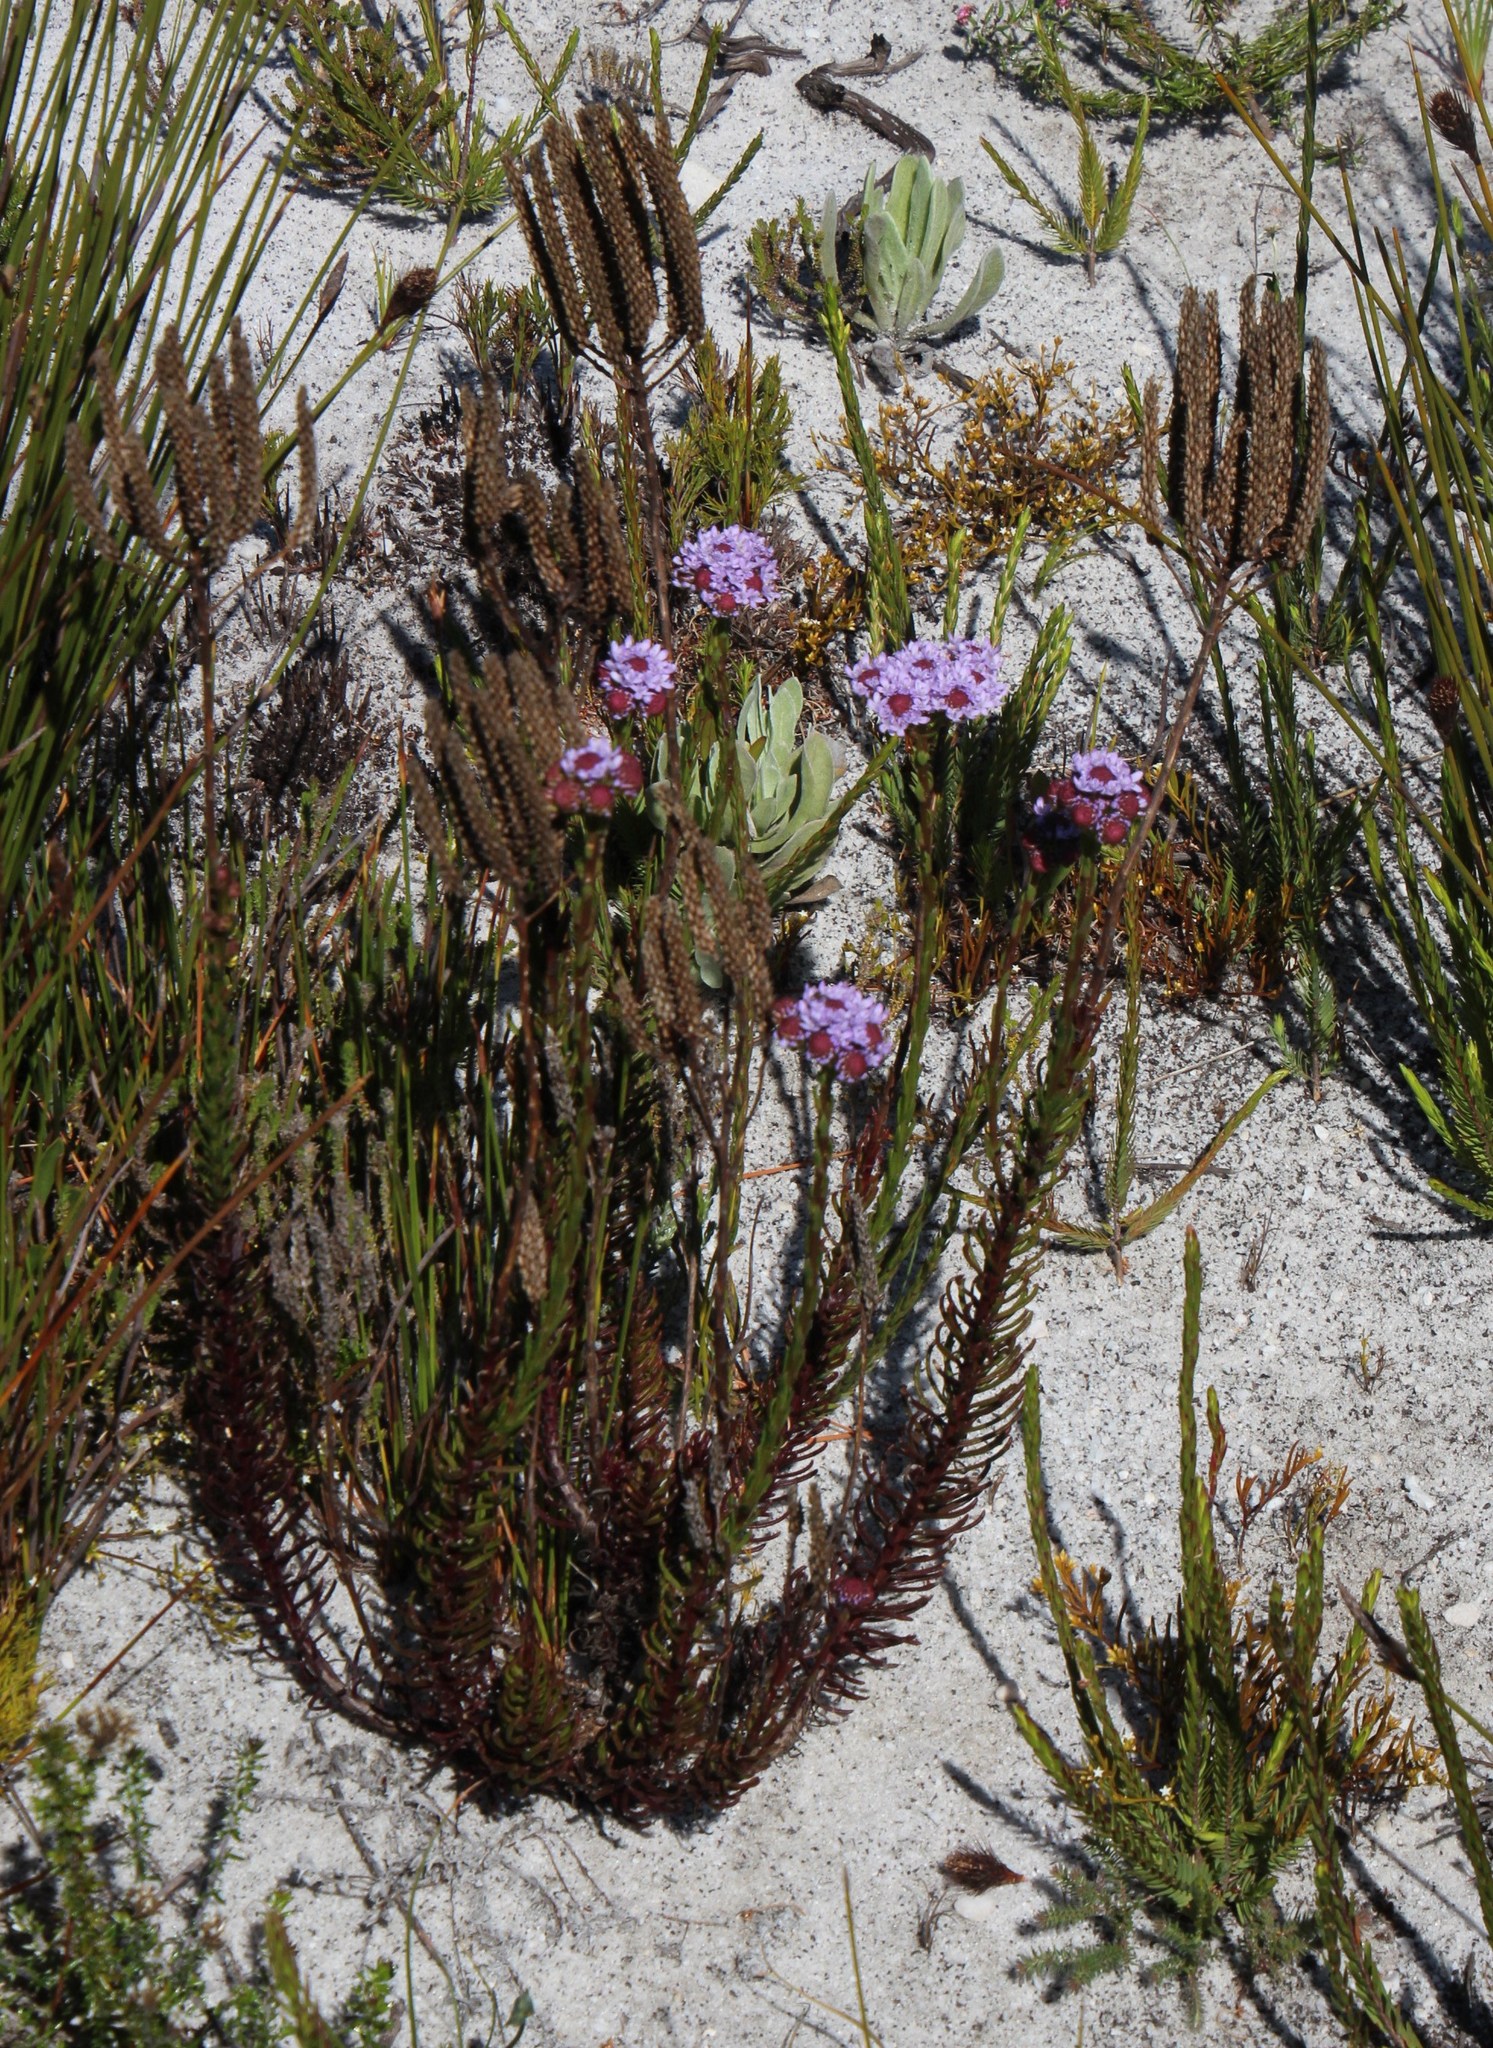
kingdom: Plantae
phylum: Tracheophyta
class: Magnoliopsida
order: Lamiales
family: Scrophulariaceae
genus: Pseudoselago
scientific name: Pseudoselago spuria
